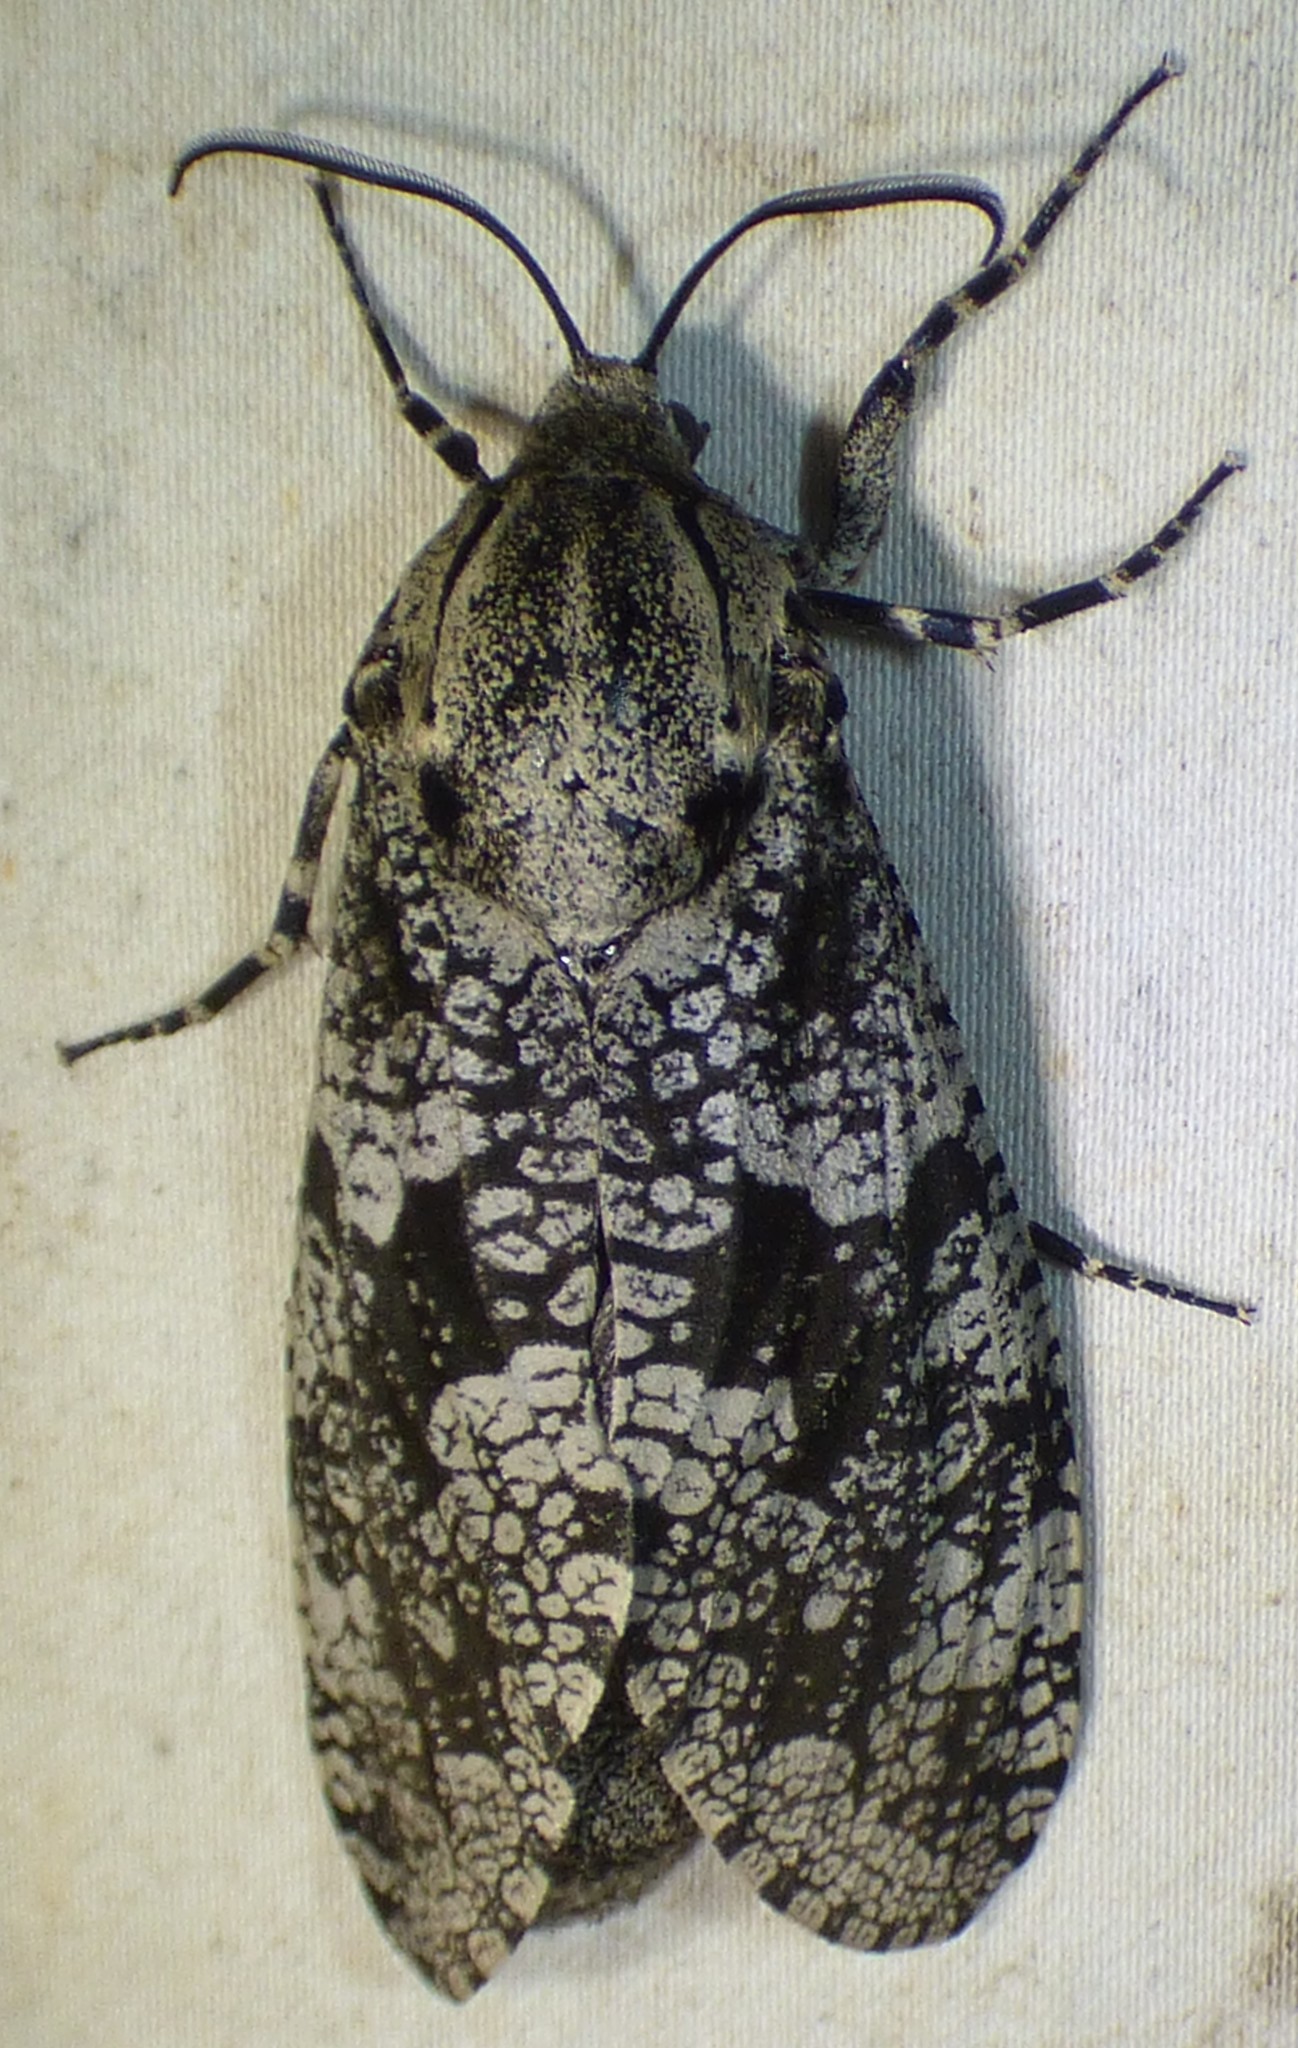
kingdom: Animalia
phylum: Arthropoda
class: Insecta
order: Lepidoptera
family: Cossidae
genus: Prionoxystus
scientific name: Prionoxystus robiniae
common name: Carpenterworm
